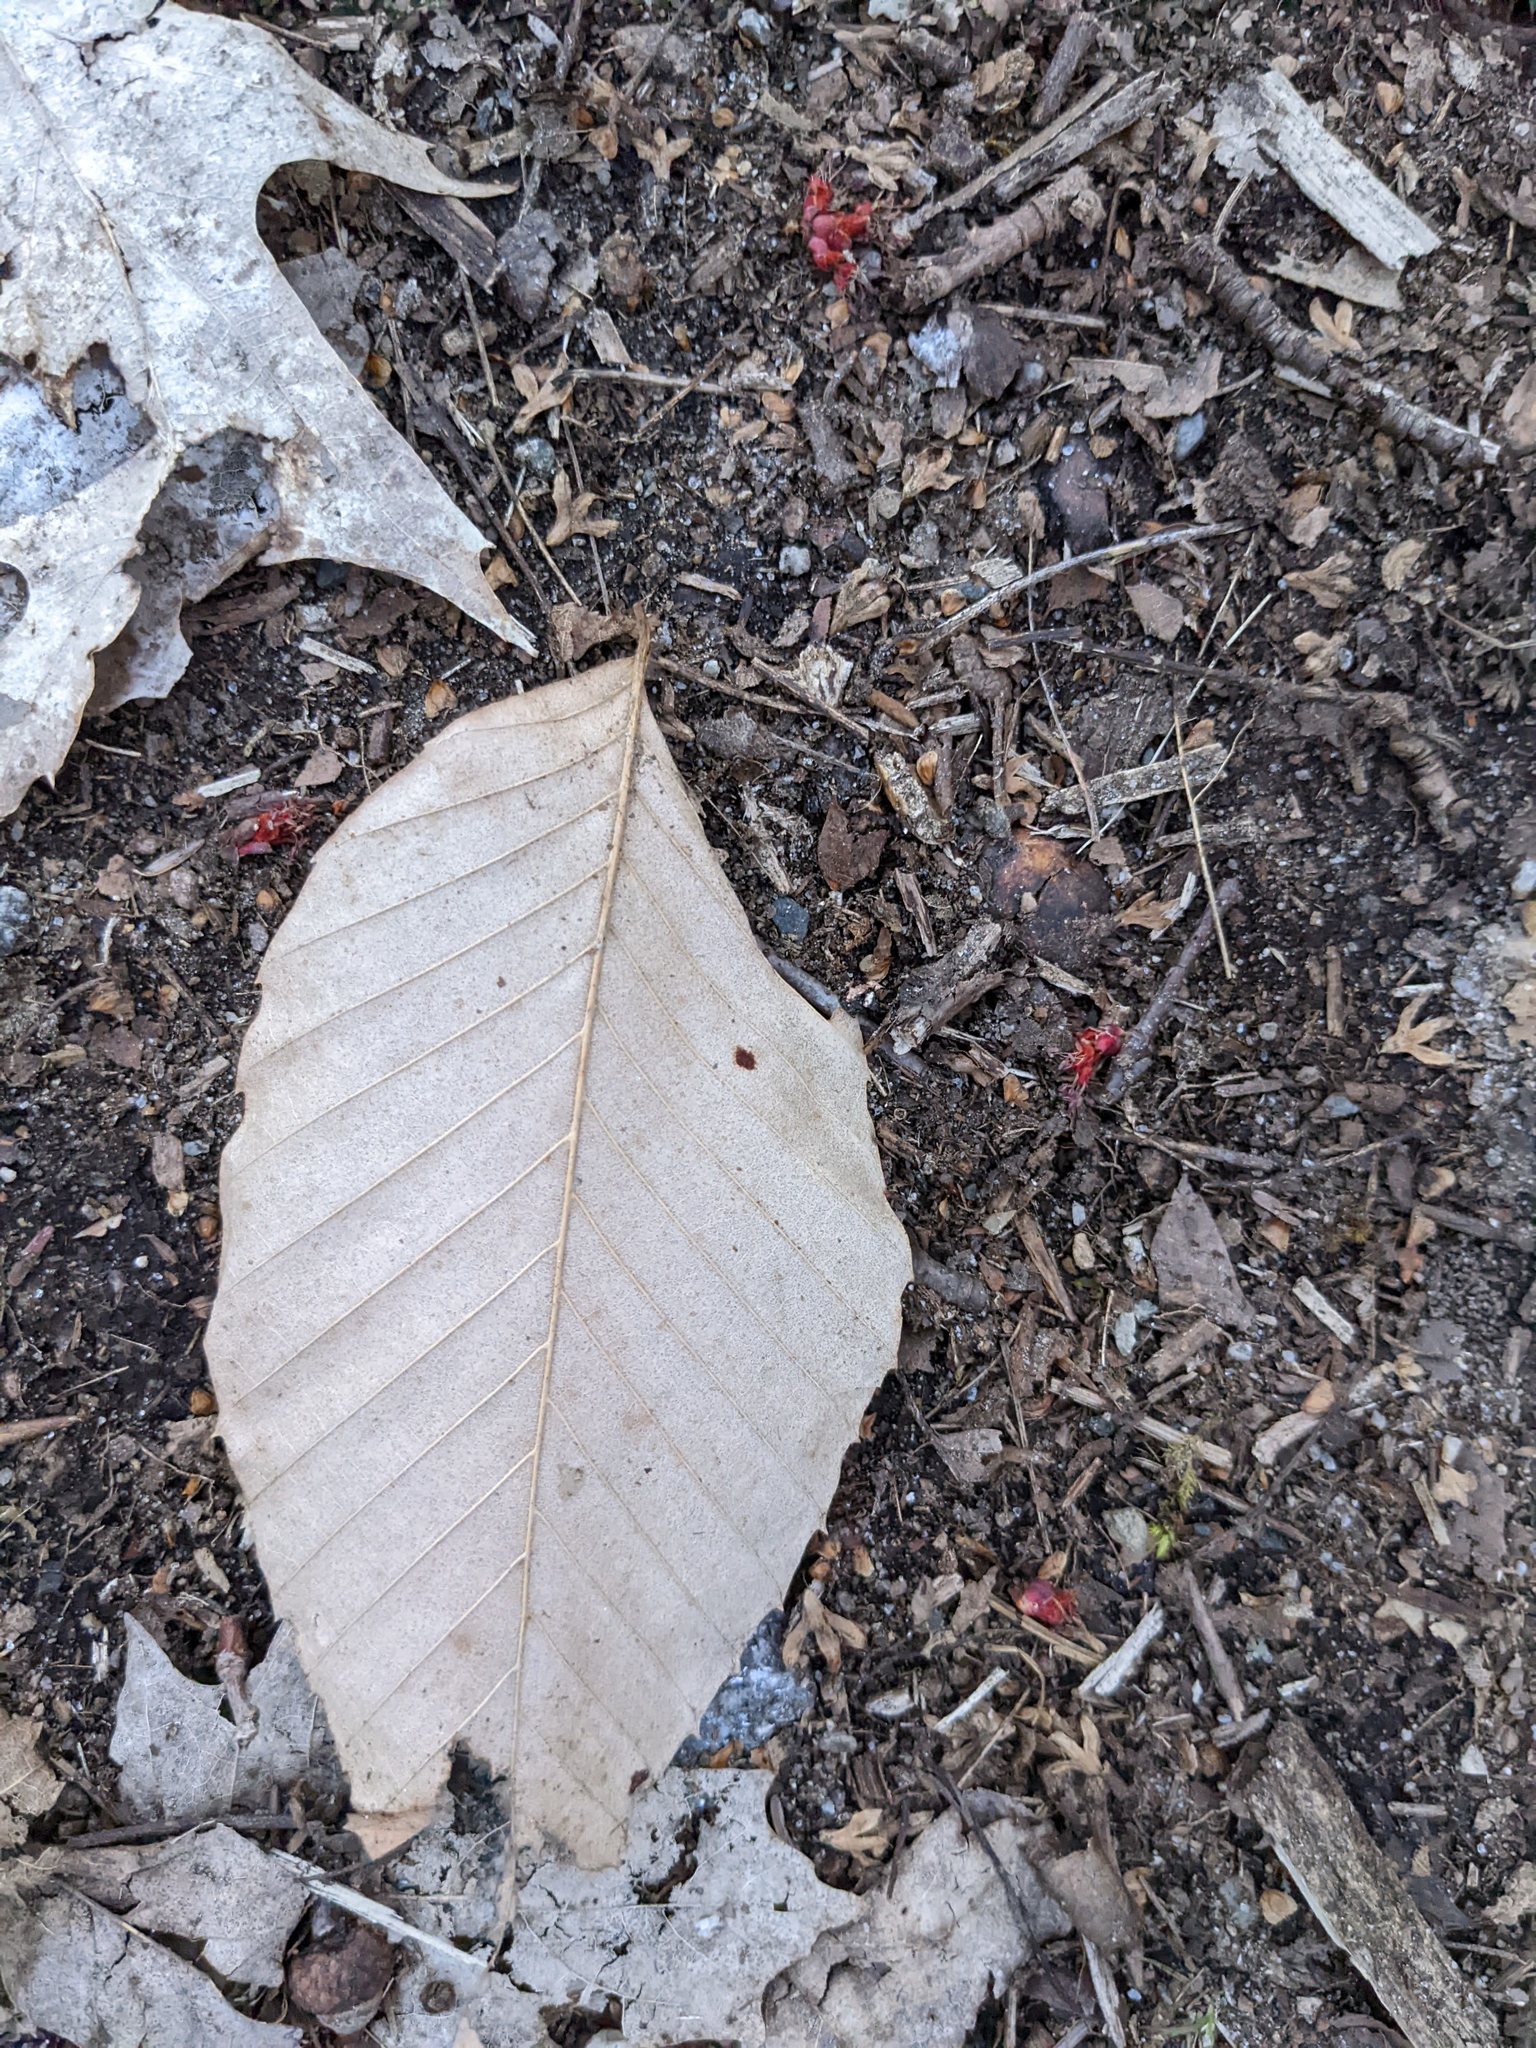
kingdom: Plantae
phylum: Tracheophyta
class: Magnoliopsida
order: Fagales
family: Fagaceae
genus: Fagus
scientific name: Fagus grandifolia
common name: American beech
